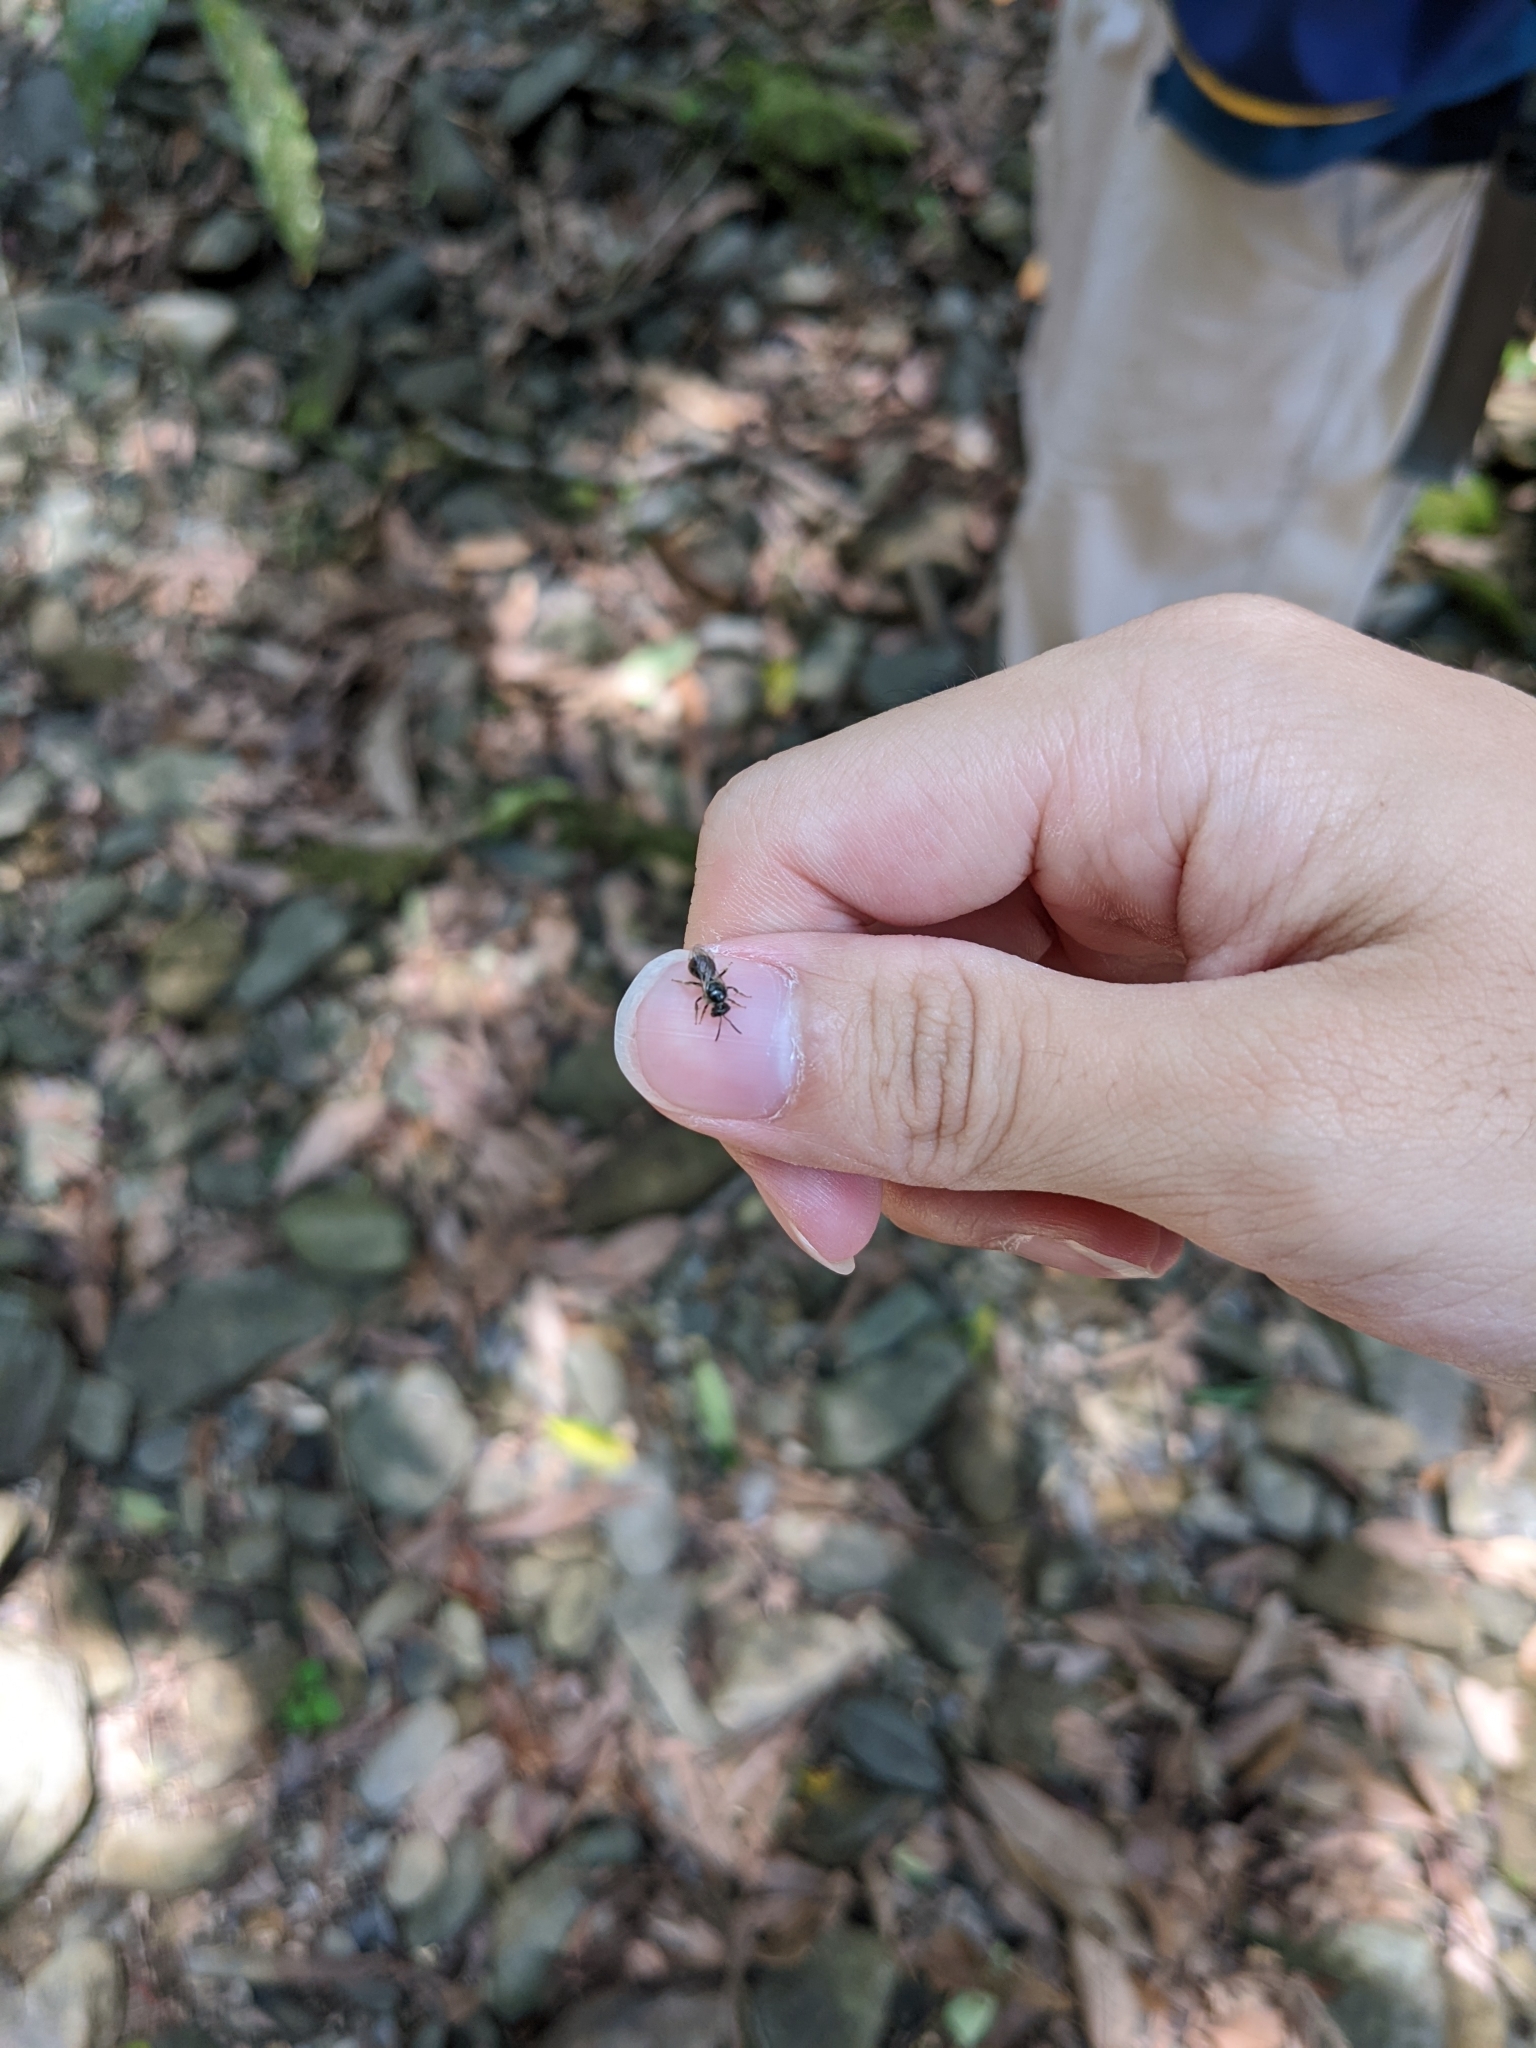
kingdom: Animalia
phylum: Arthropoda
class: Insecta
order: Hymenoptera
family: Halictidae
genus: Lasioglossum
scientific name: Lasioglossum
